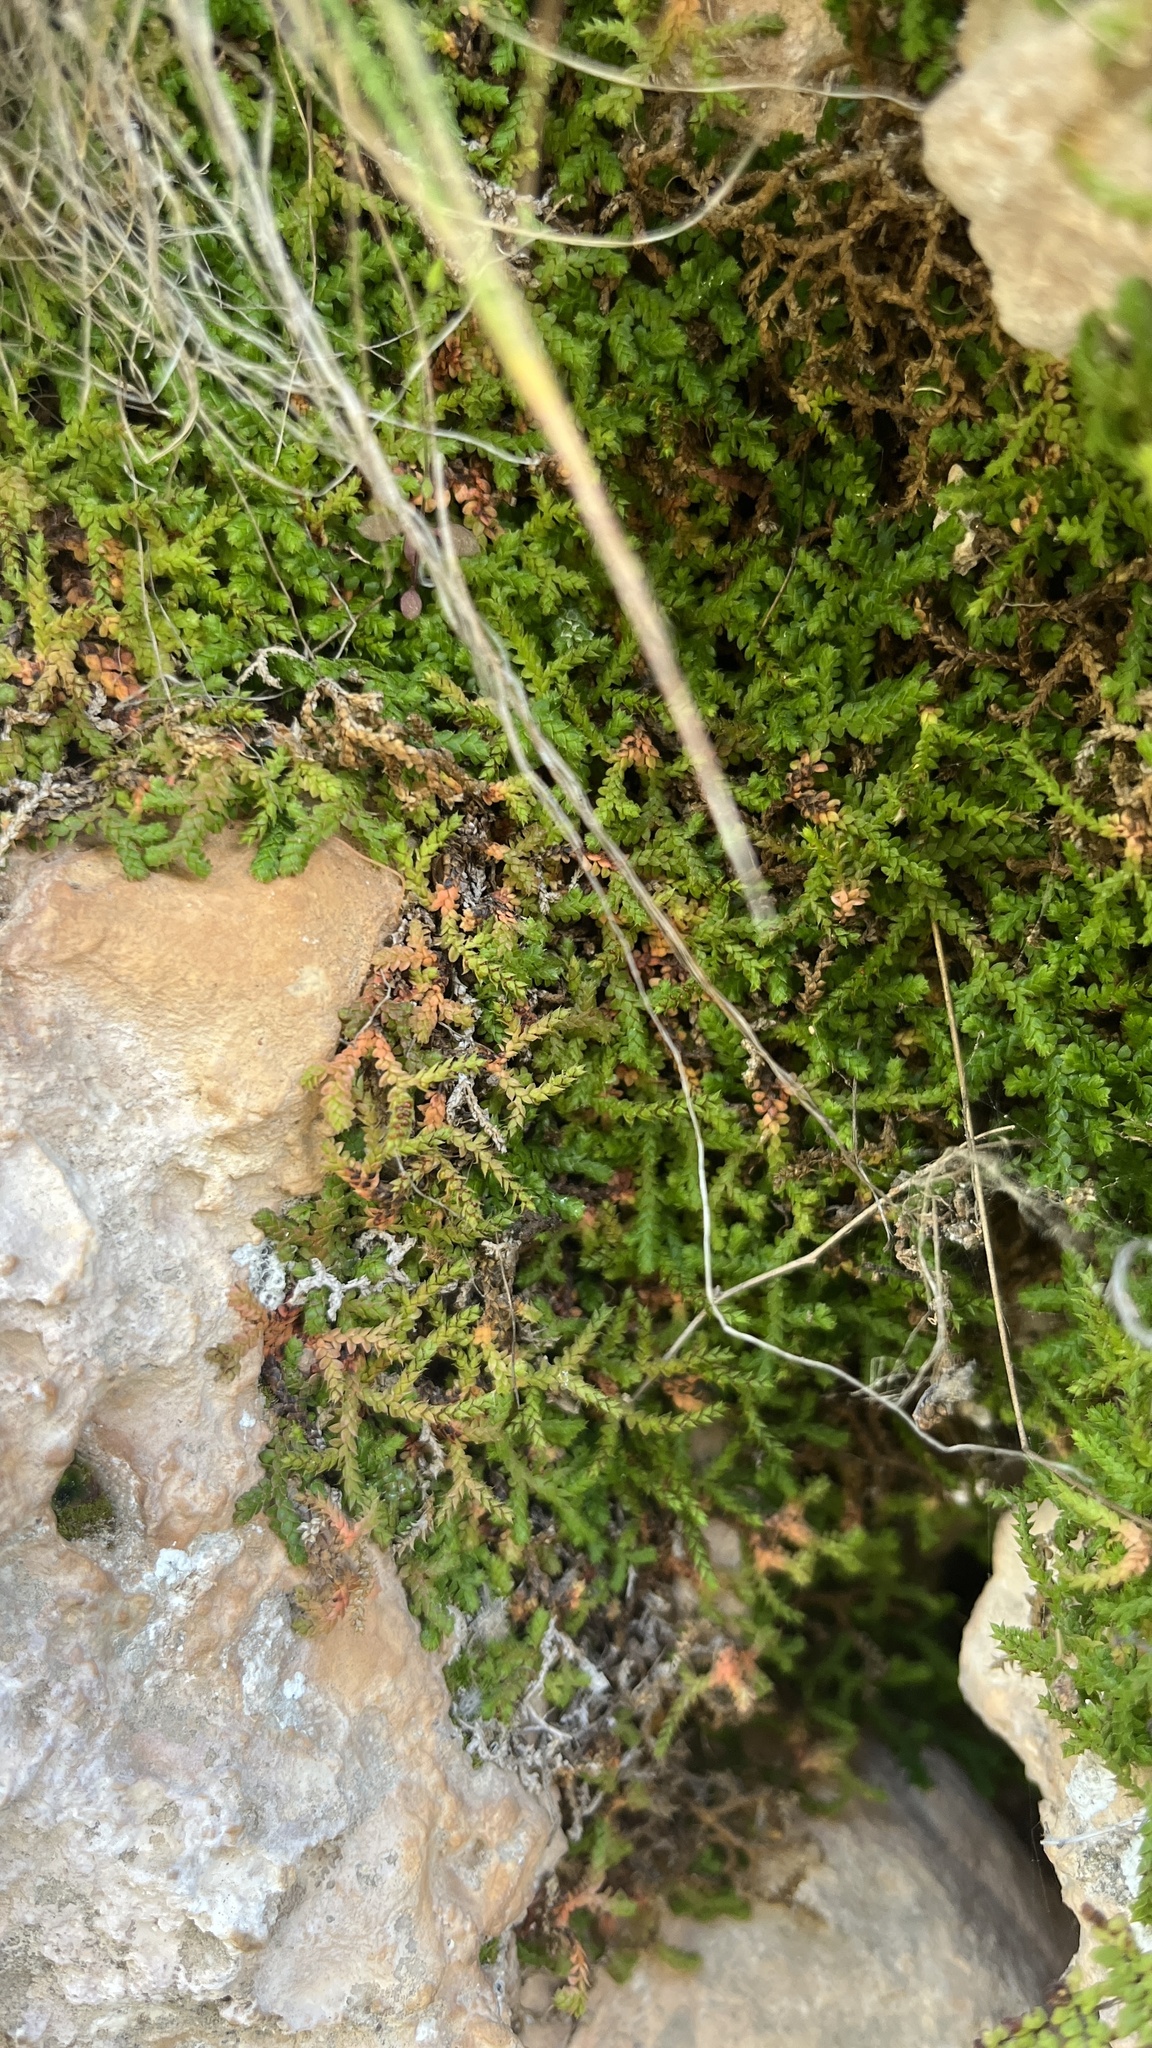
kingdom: Plantae
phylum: Tracheophyta
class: Lycopodiopsida
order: Selaginellales
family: Selaginellaceae
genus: Selaginella
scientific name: Selaginella denticulata
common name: Toothed-leaved clubmoss
